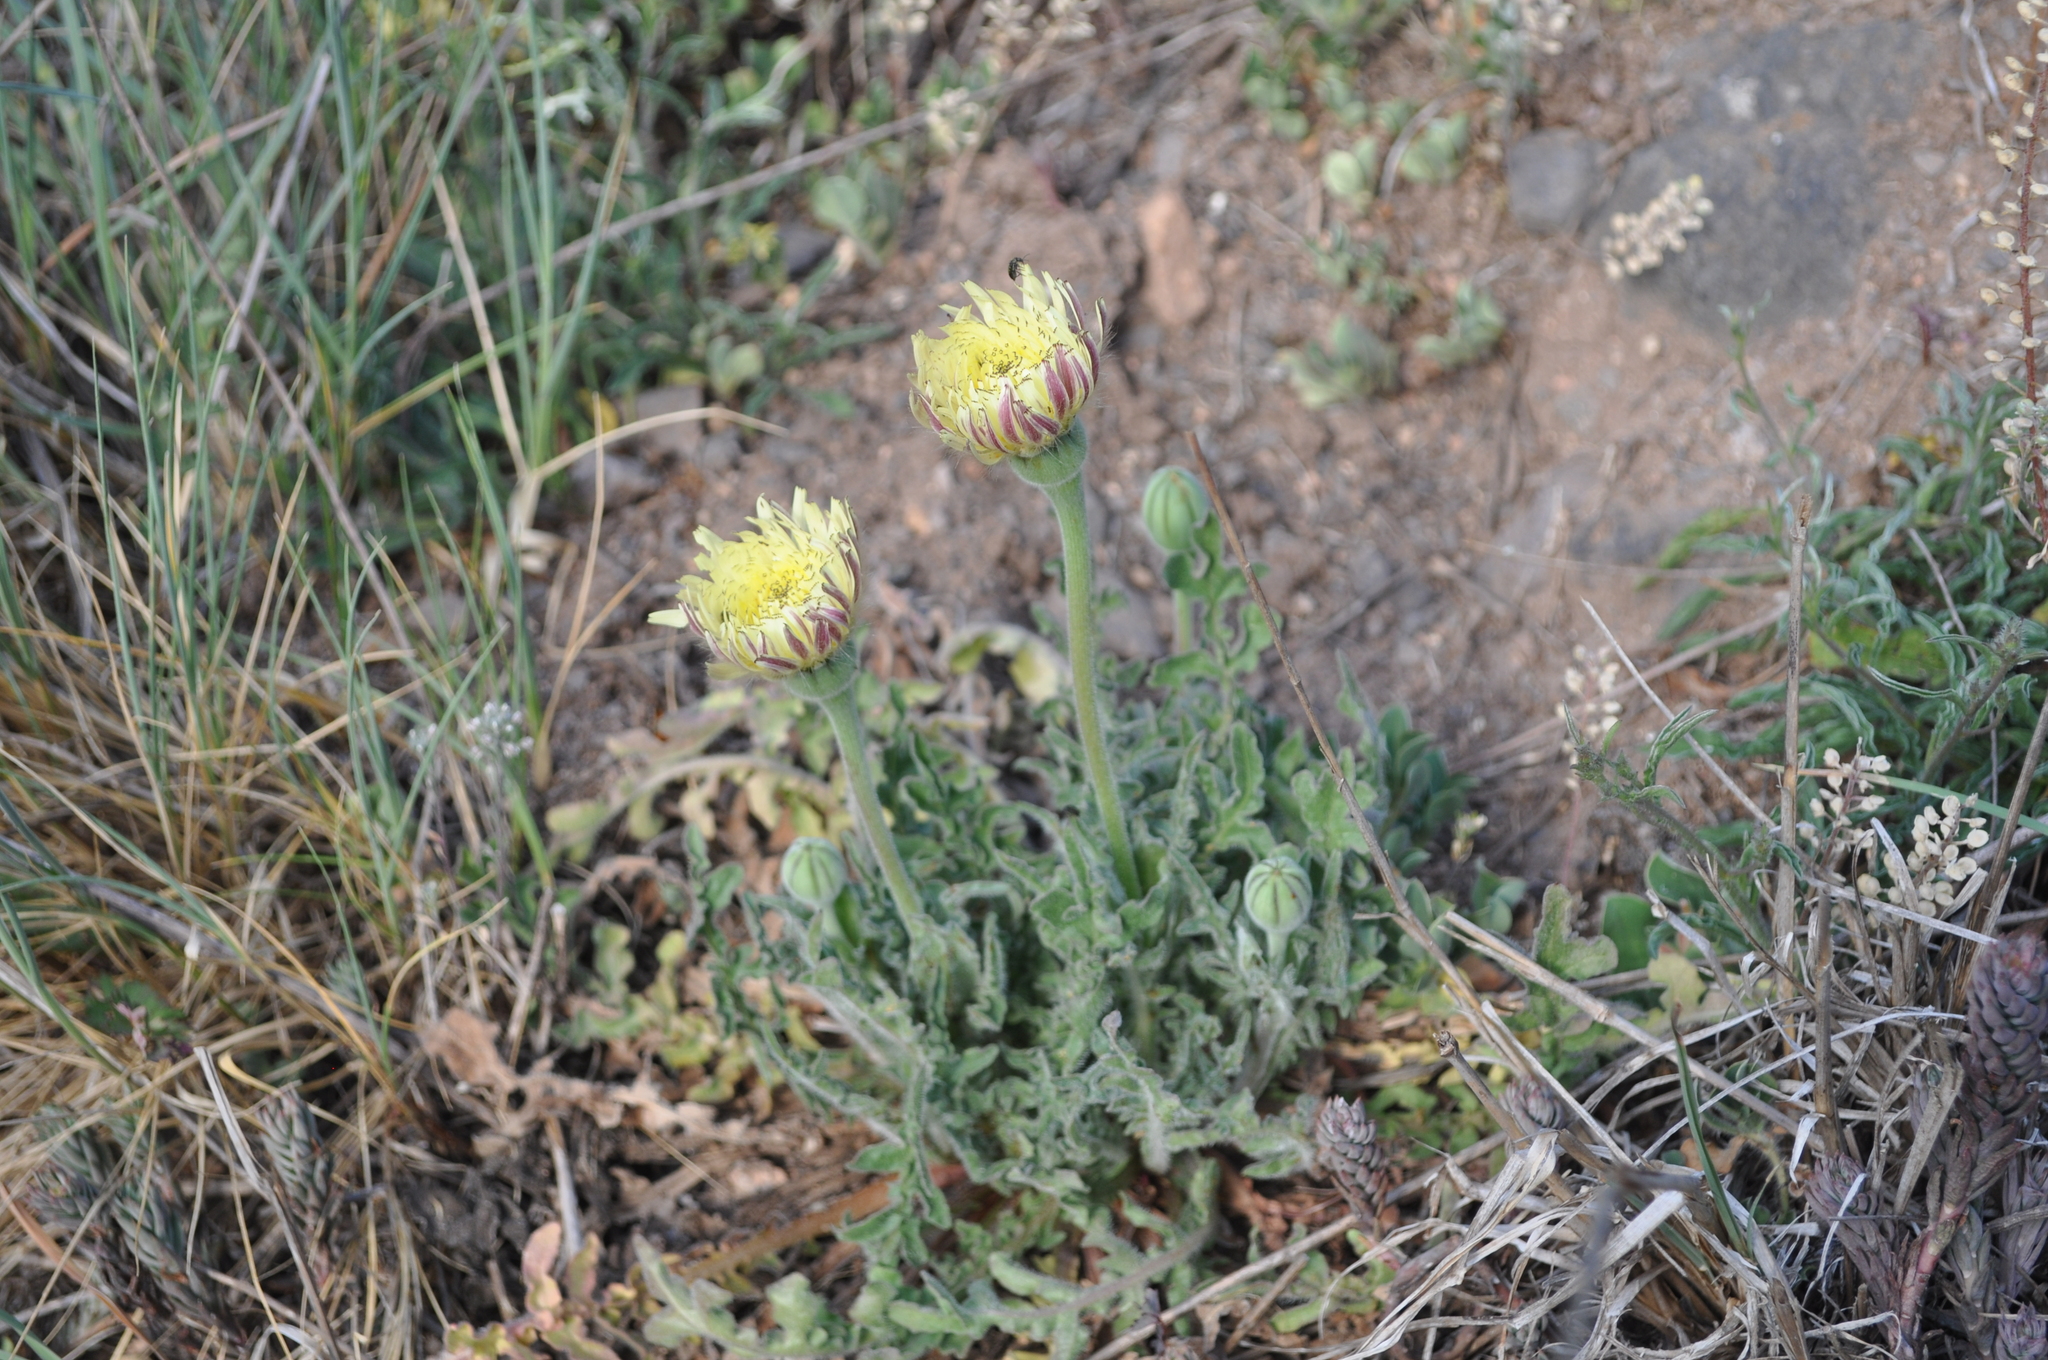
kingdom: Plantae
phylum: Tracheophyta
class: Magnoliopsida
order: Asterales
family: Asteraceae
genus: Urospermum
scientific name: Urospermum dalechampii
